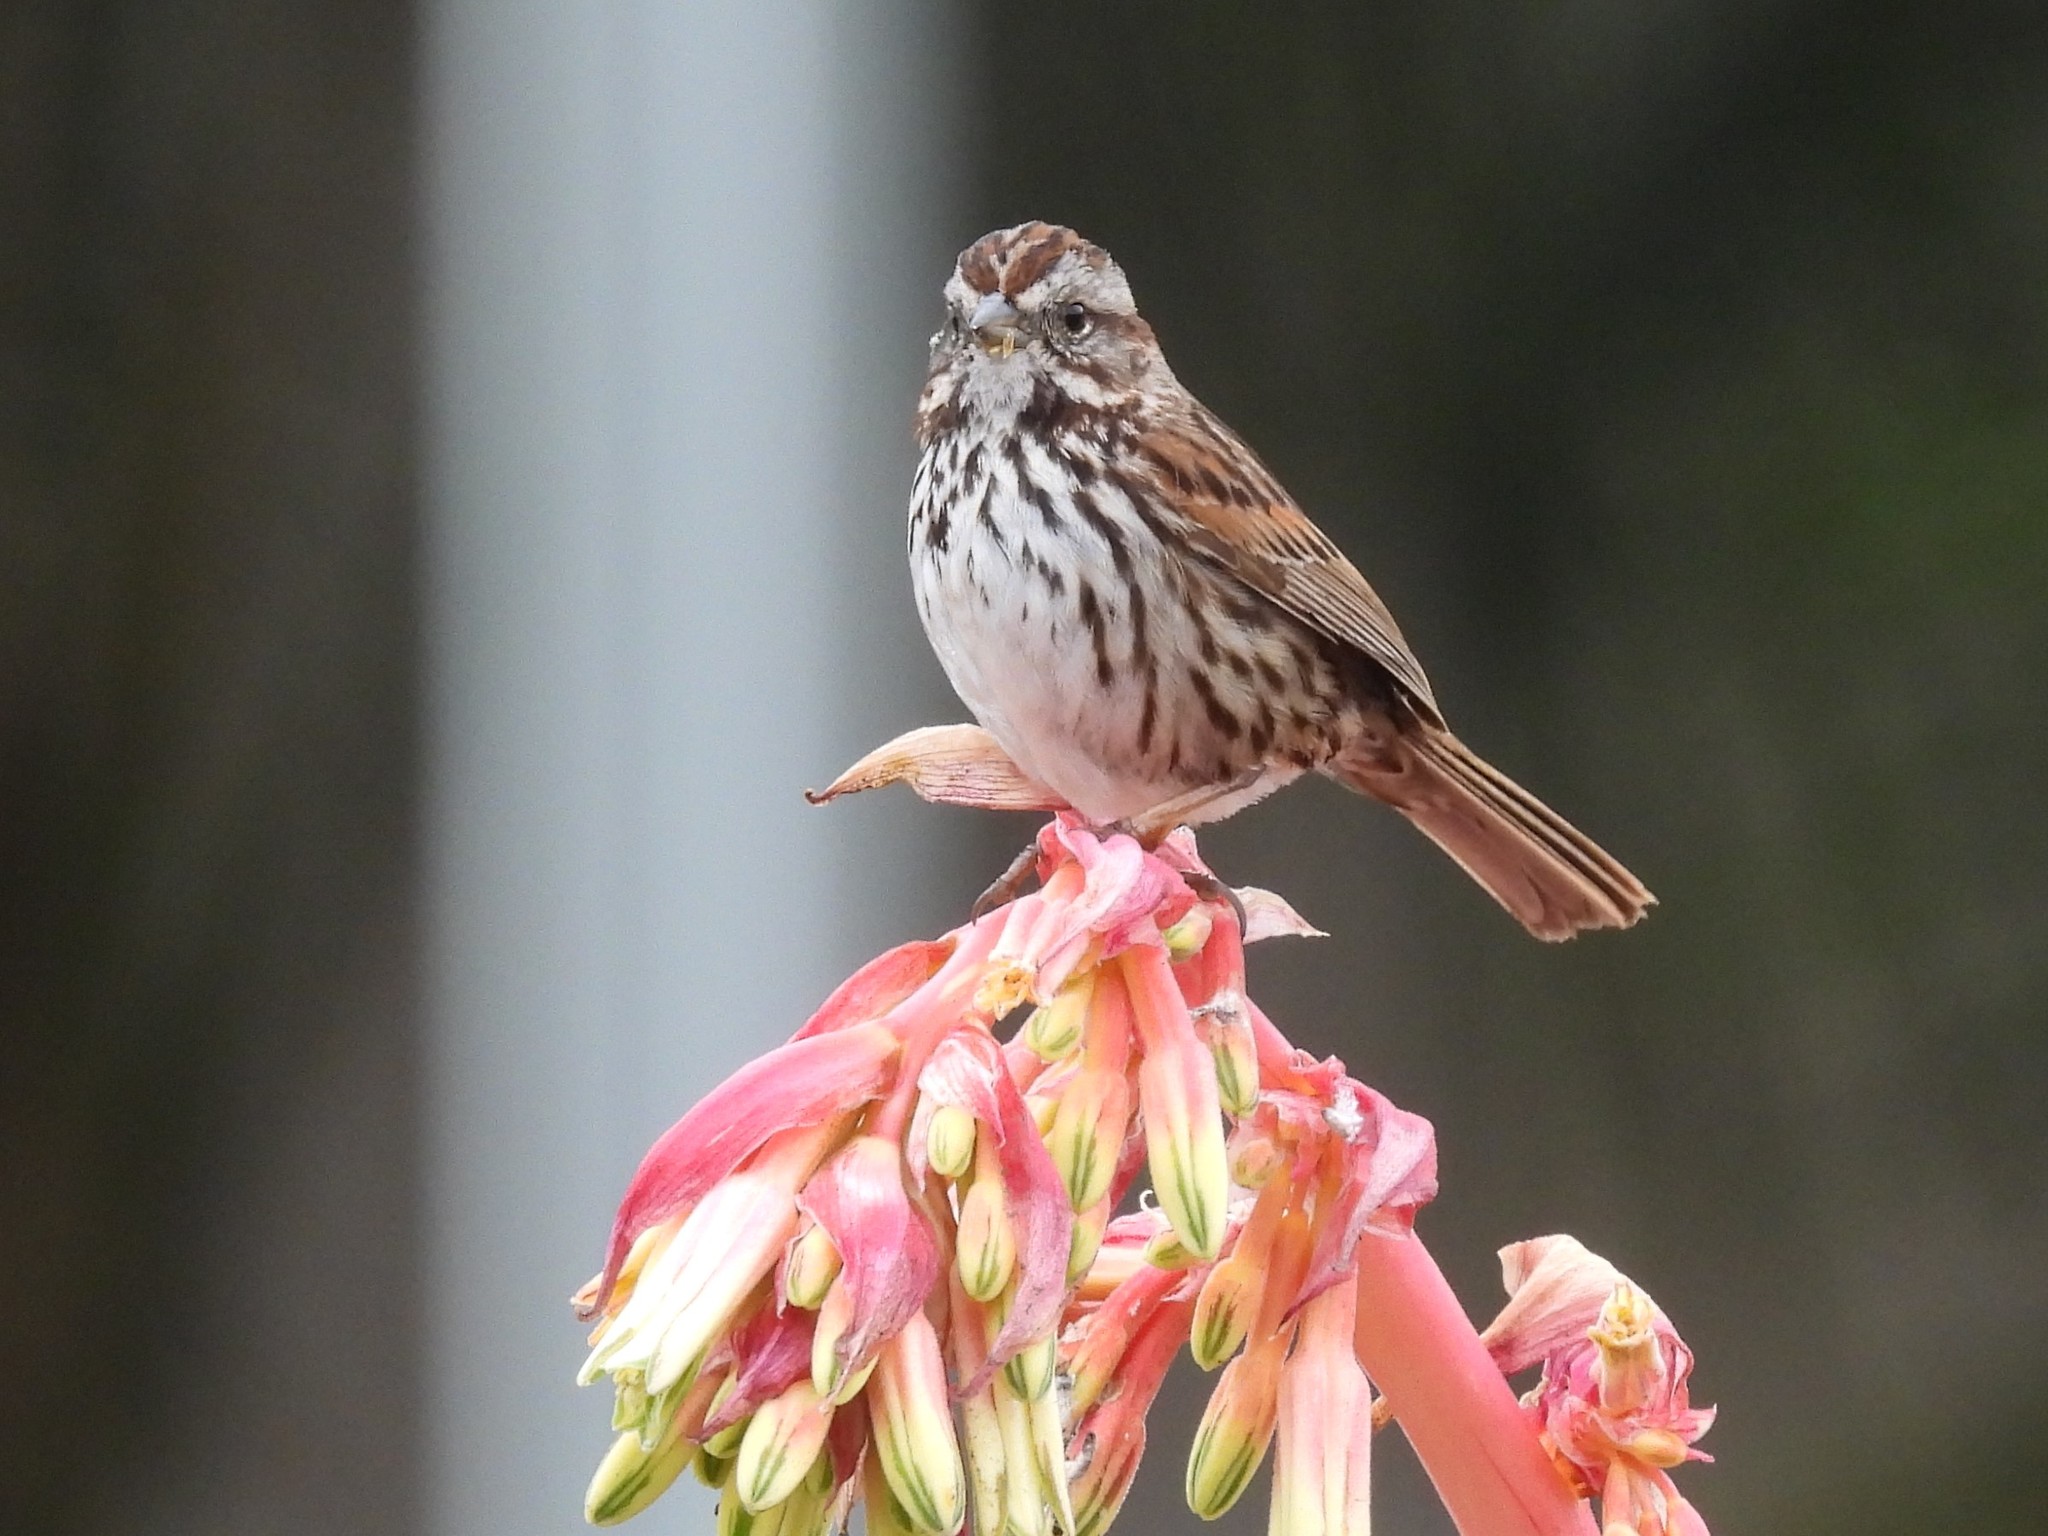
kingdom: Animalia
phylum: Chordata
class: Aves
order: Passeriformes
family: Passerellidae
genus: Melospiza
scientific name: Melospiza melodia
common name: Song sparrow
